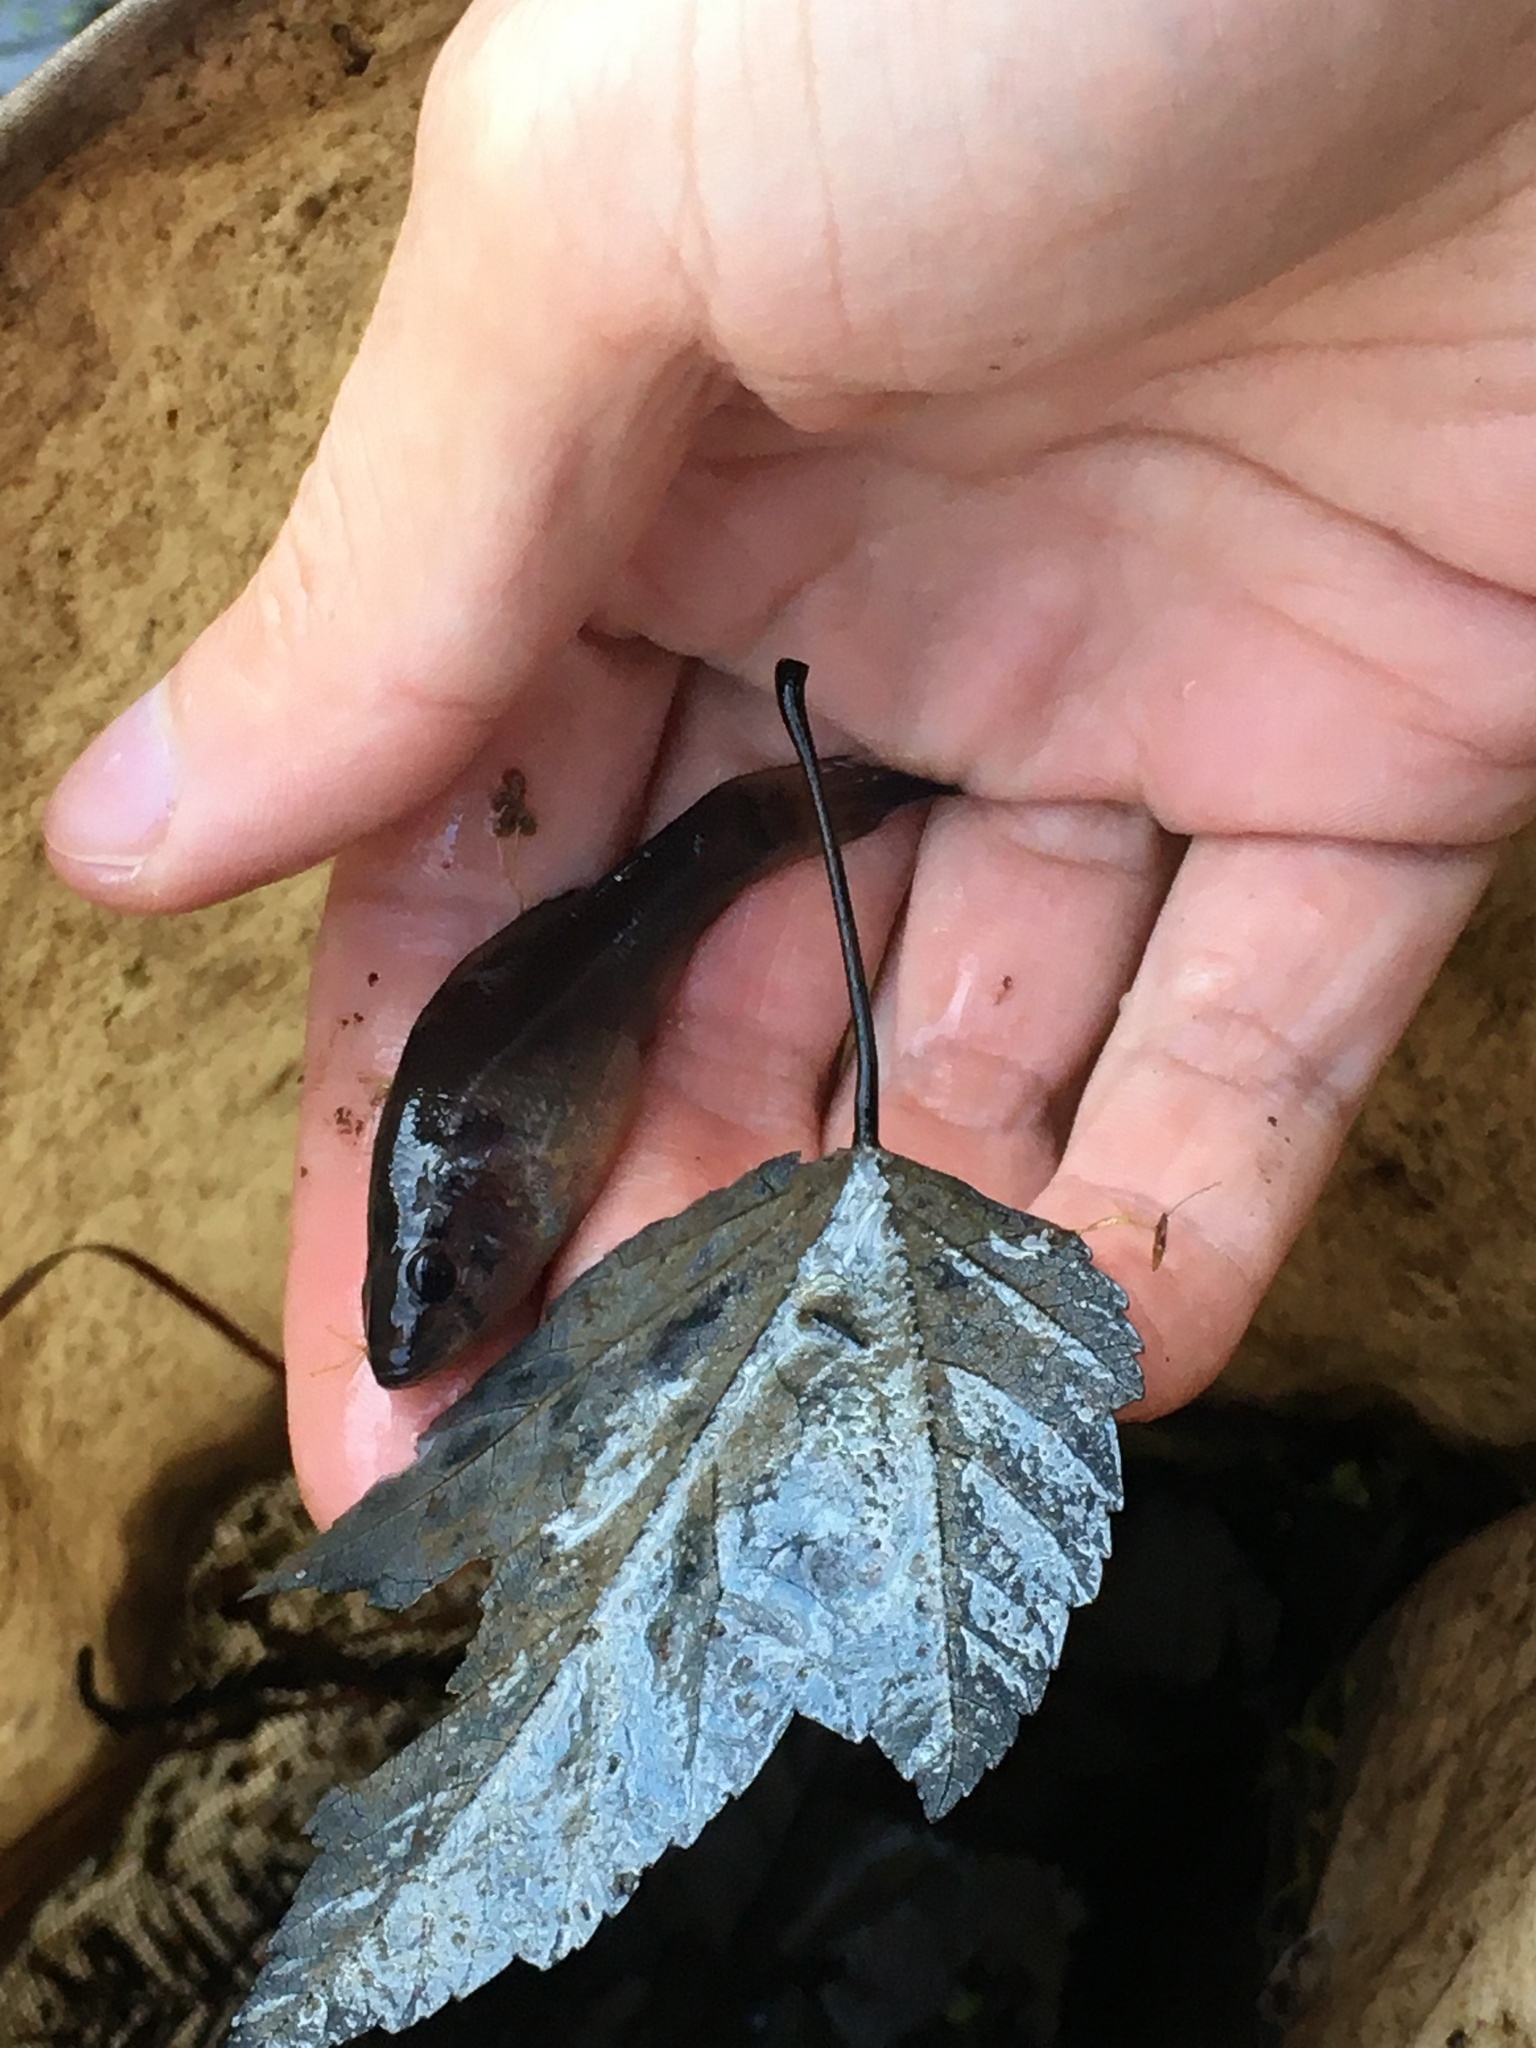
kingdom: Animalia
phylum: Chordata
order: Percopsiformes
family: Aphredoderidae
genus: Aphredoderus
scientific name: Aphredoderus
